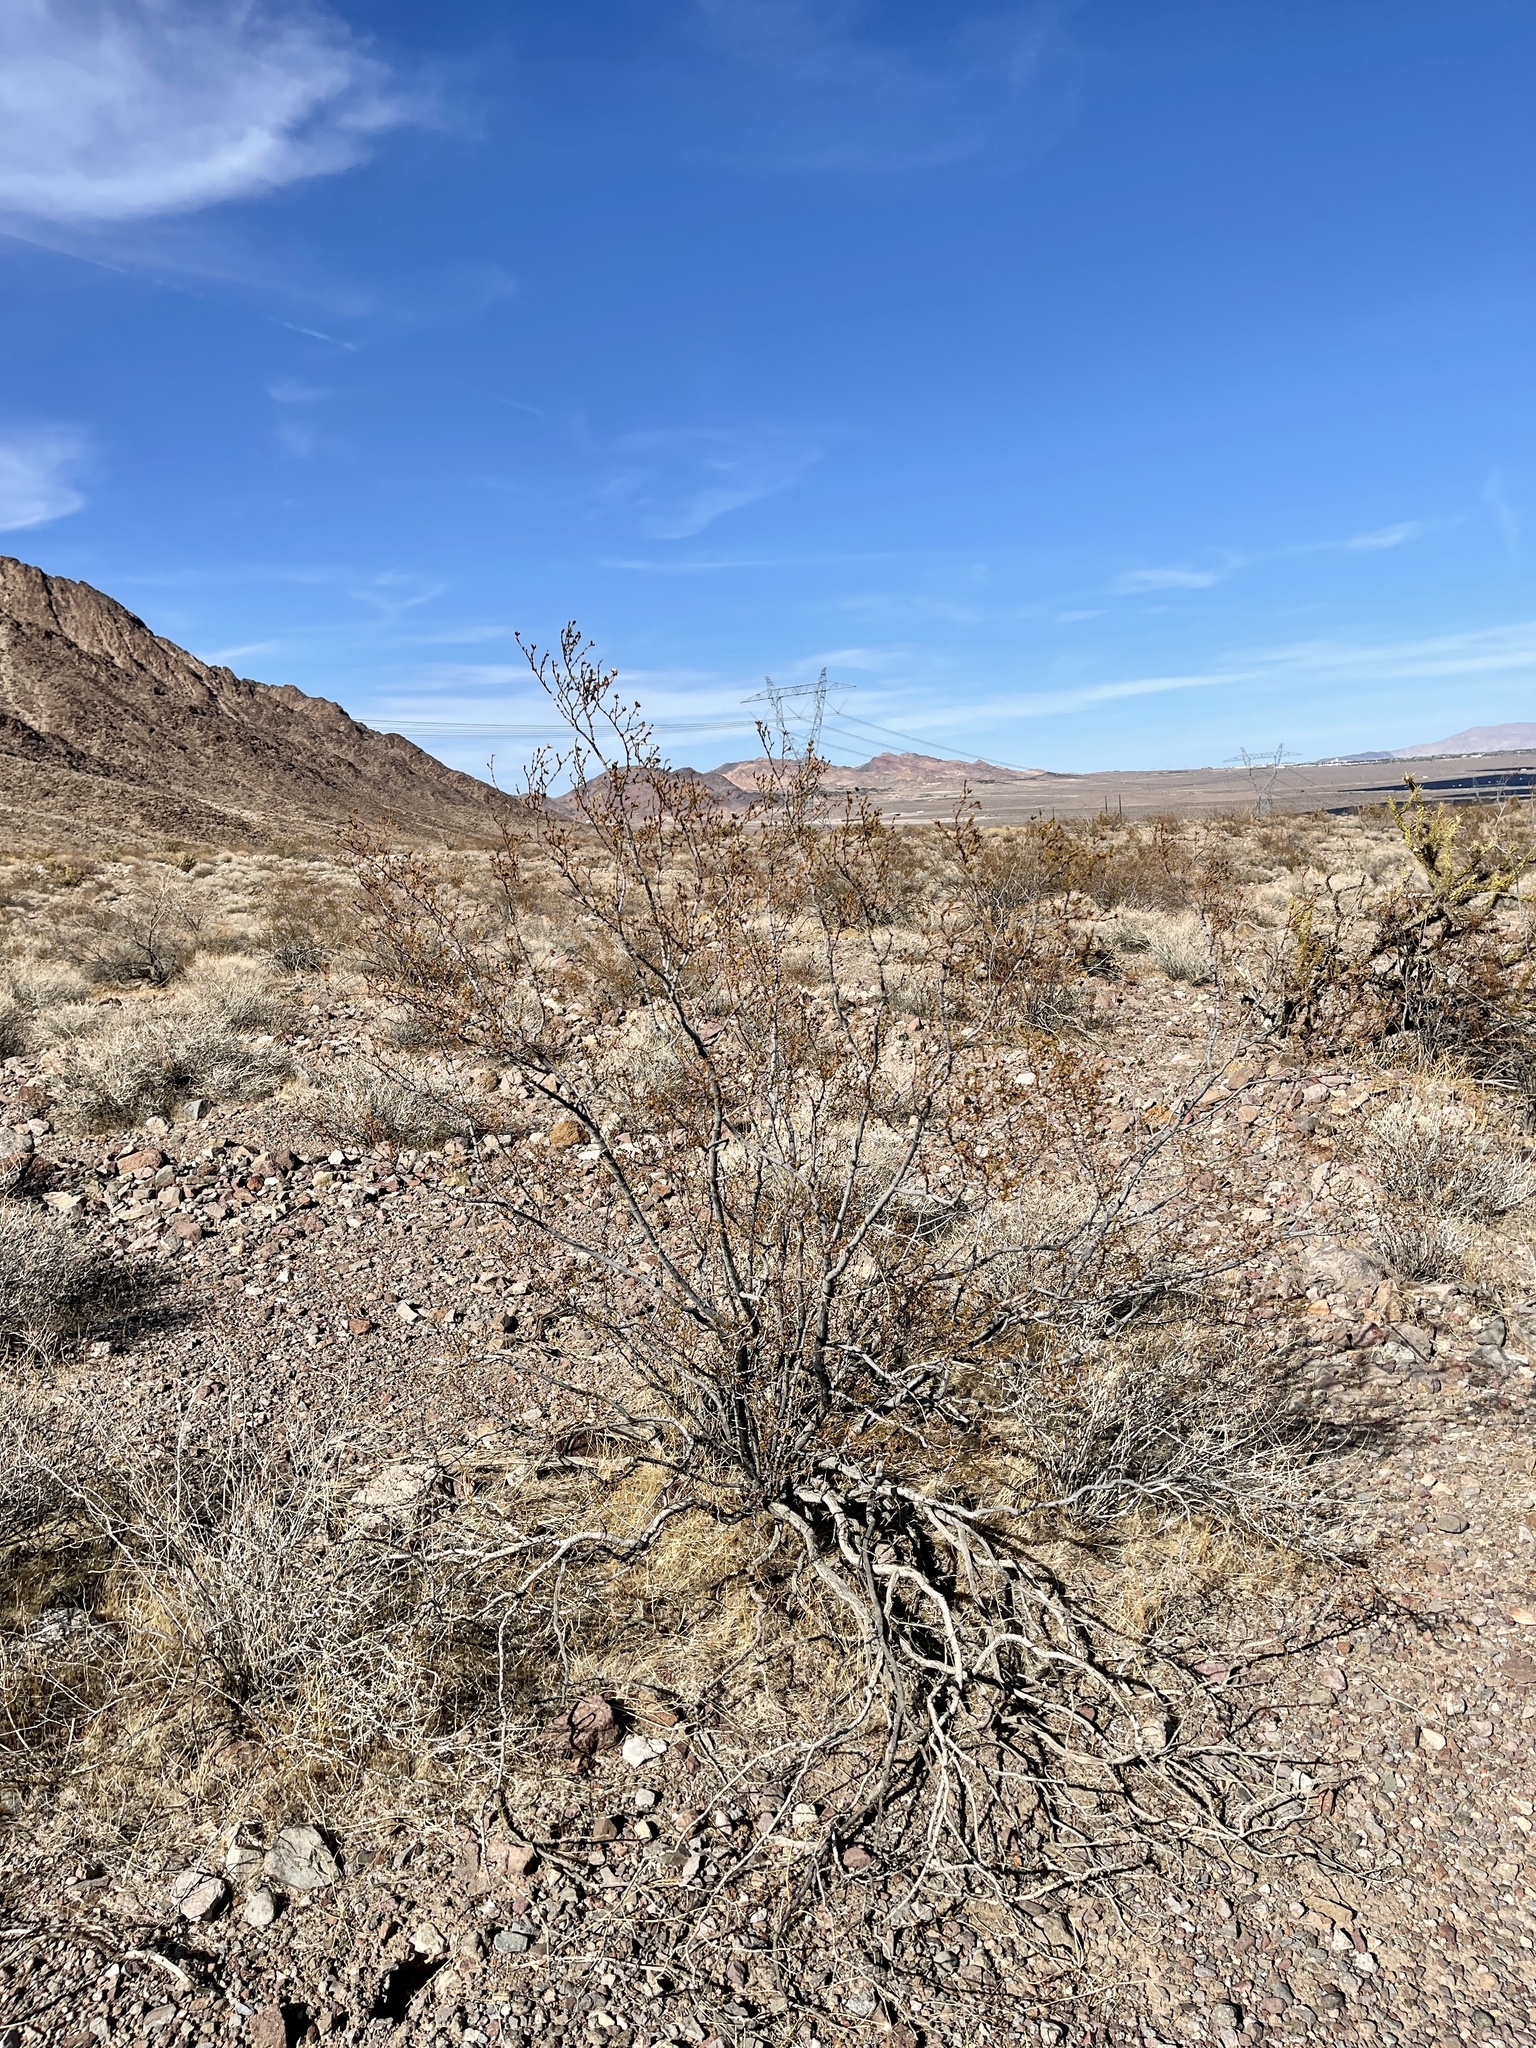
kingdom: Plantae
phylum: Tracheophyta
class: Magnoliopsida
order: Zygophyllales
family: Zygophyllaceae
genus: Larrea
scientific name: Larrea tridentata
